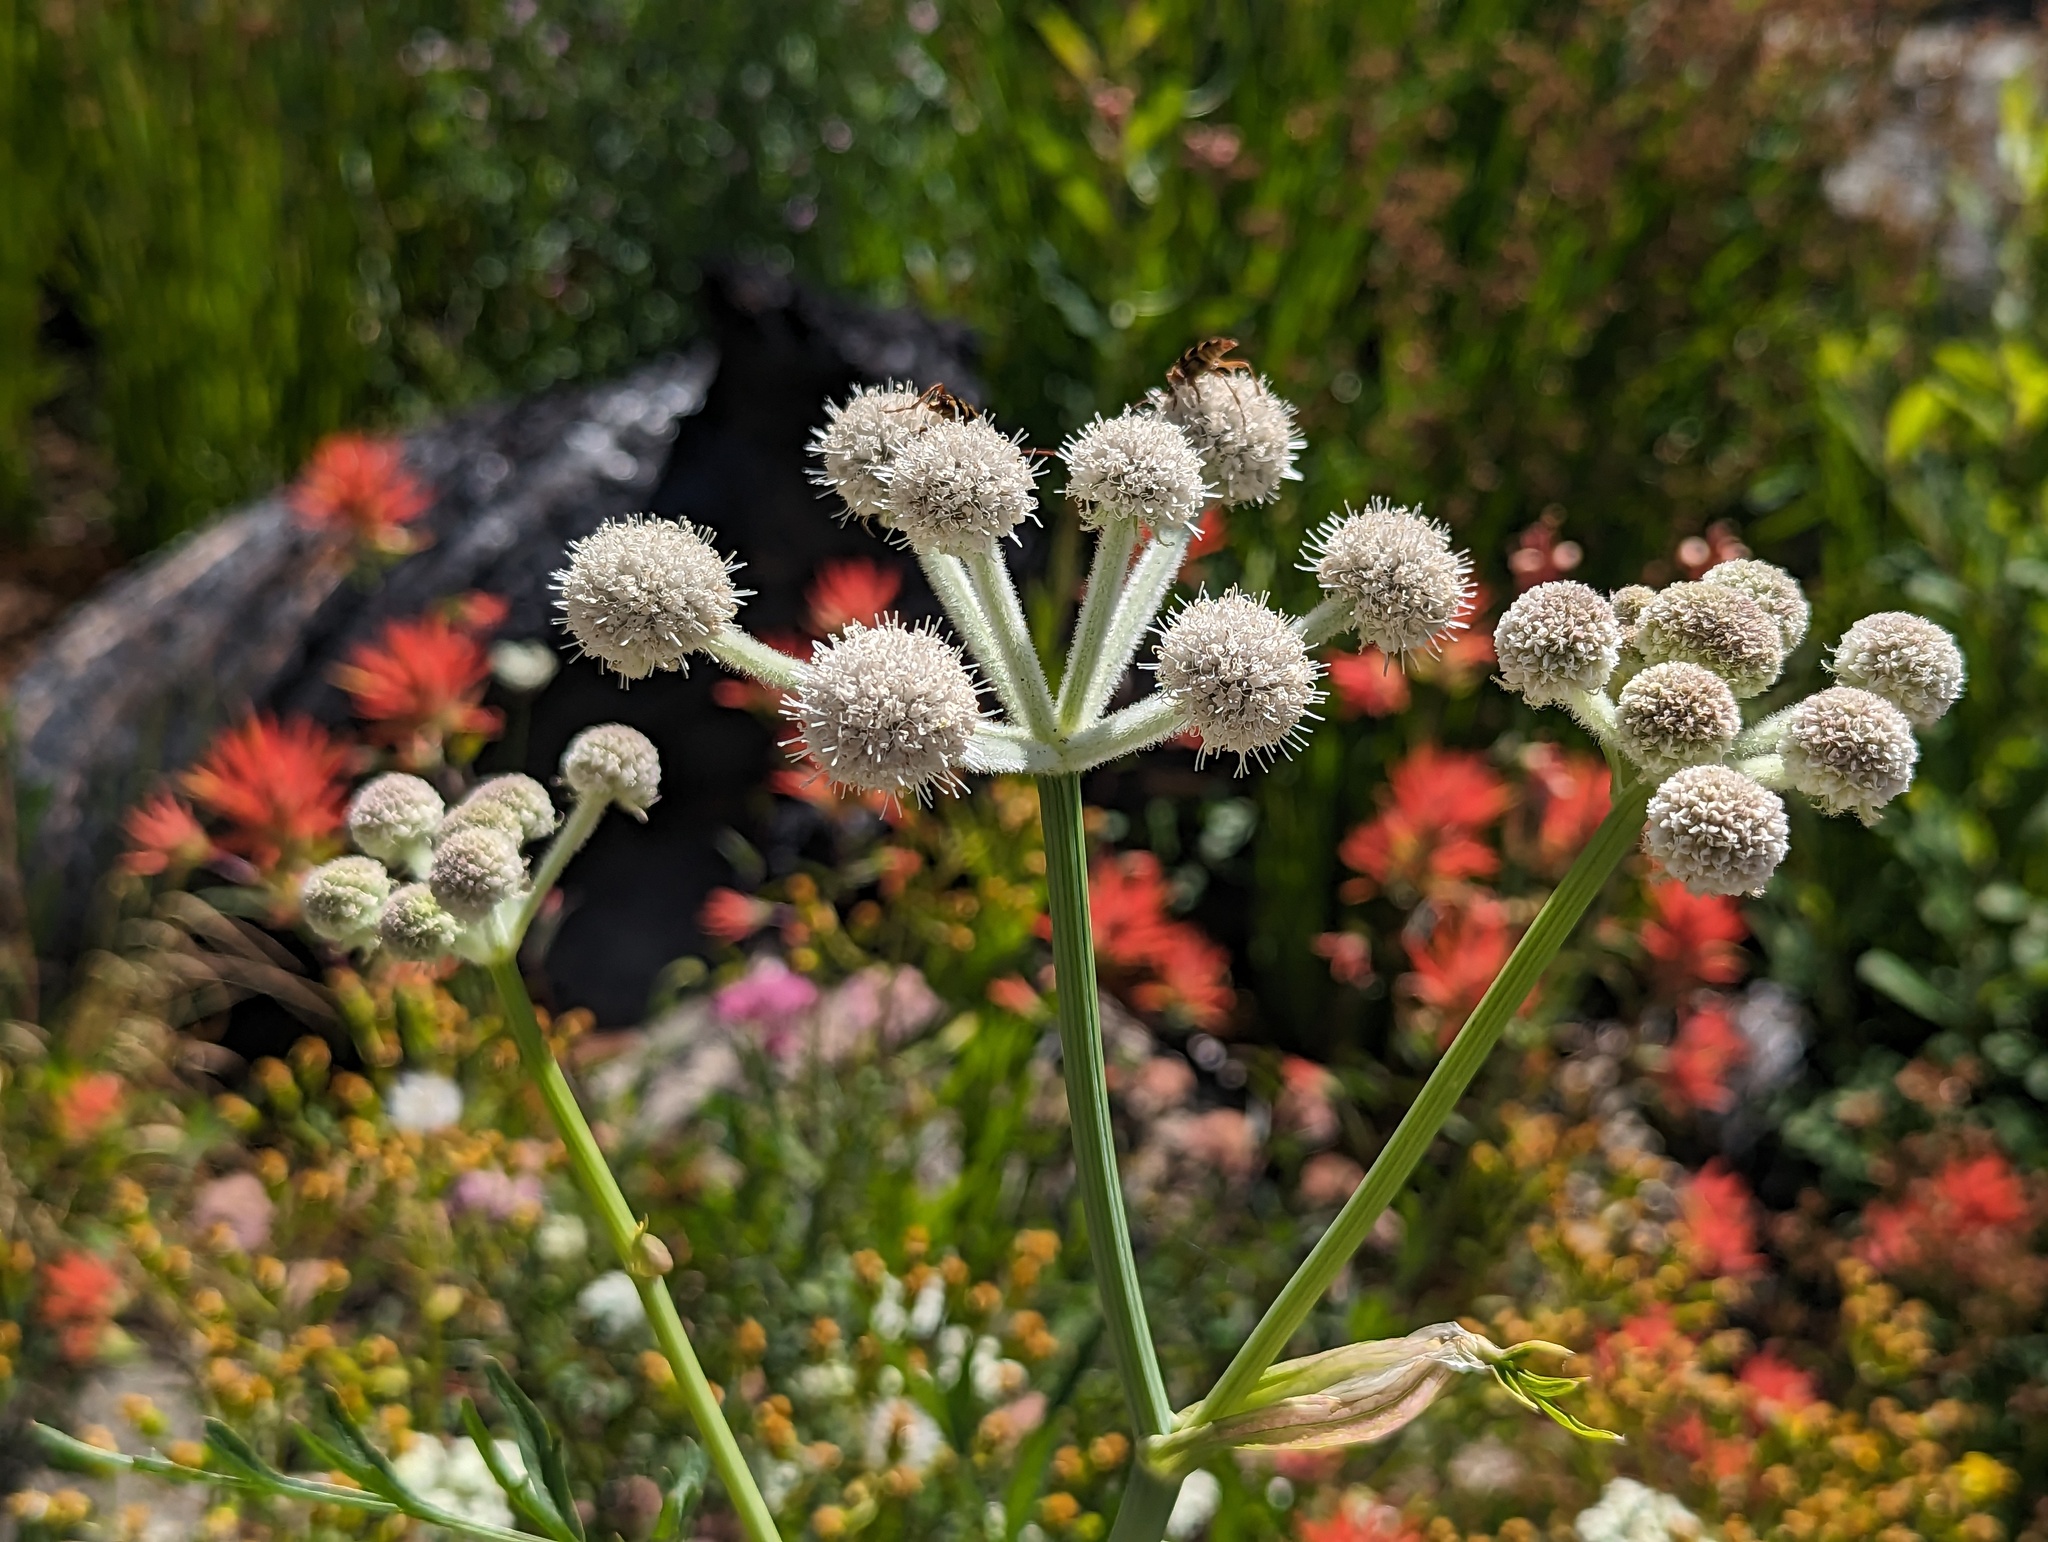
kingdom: Plantae
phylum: Tracheophyta
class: Magnoliopsida
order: Apiales
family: Apiaceae
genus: Angelica
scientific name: Angelica capitellata
